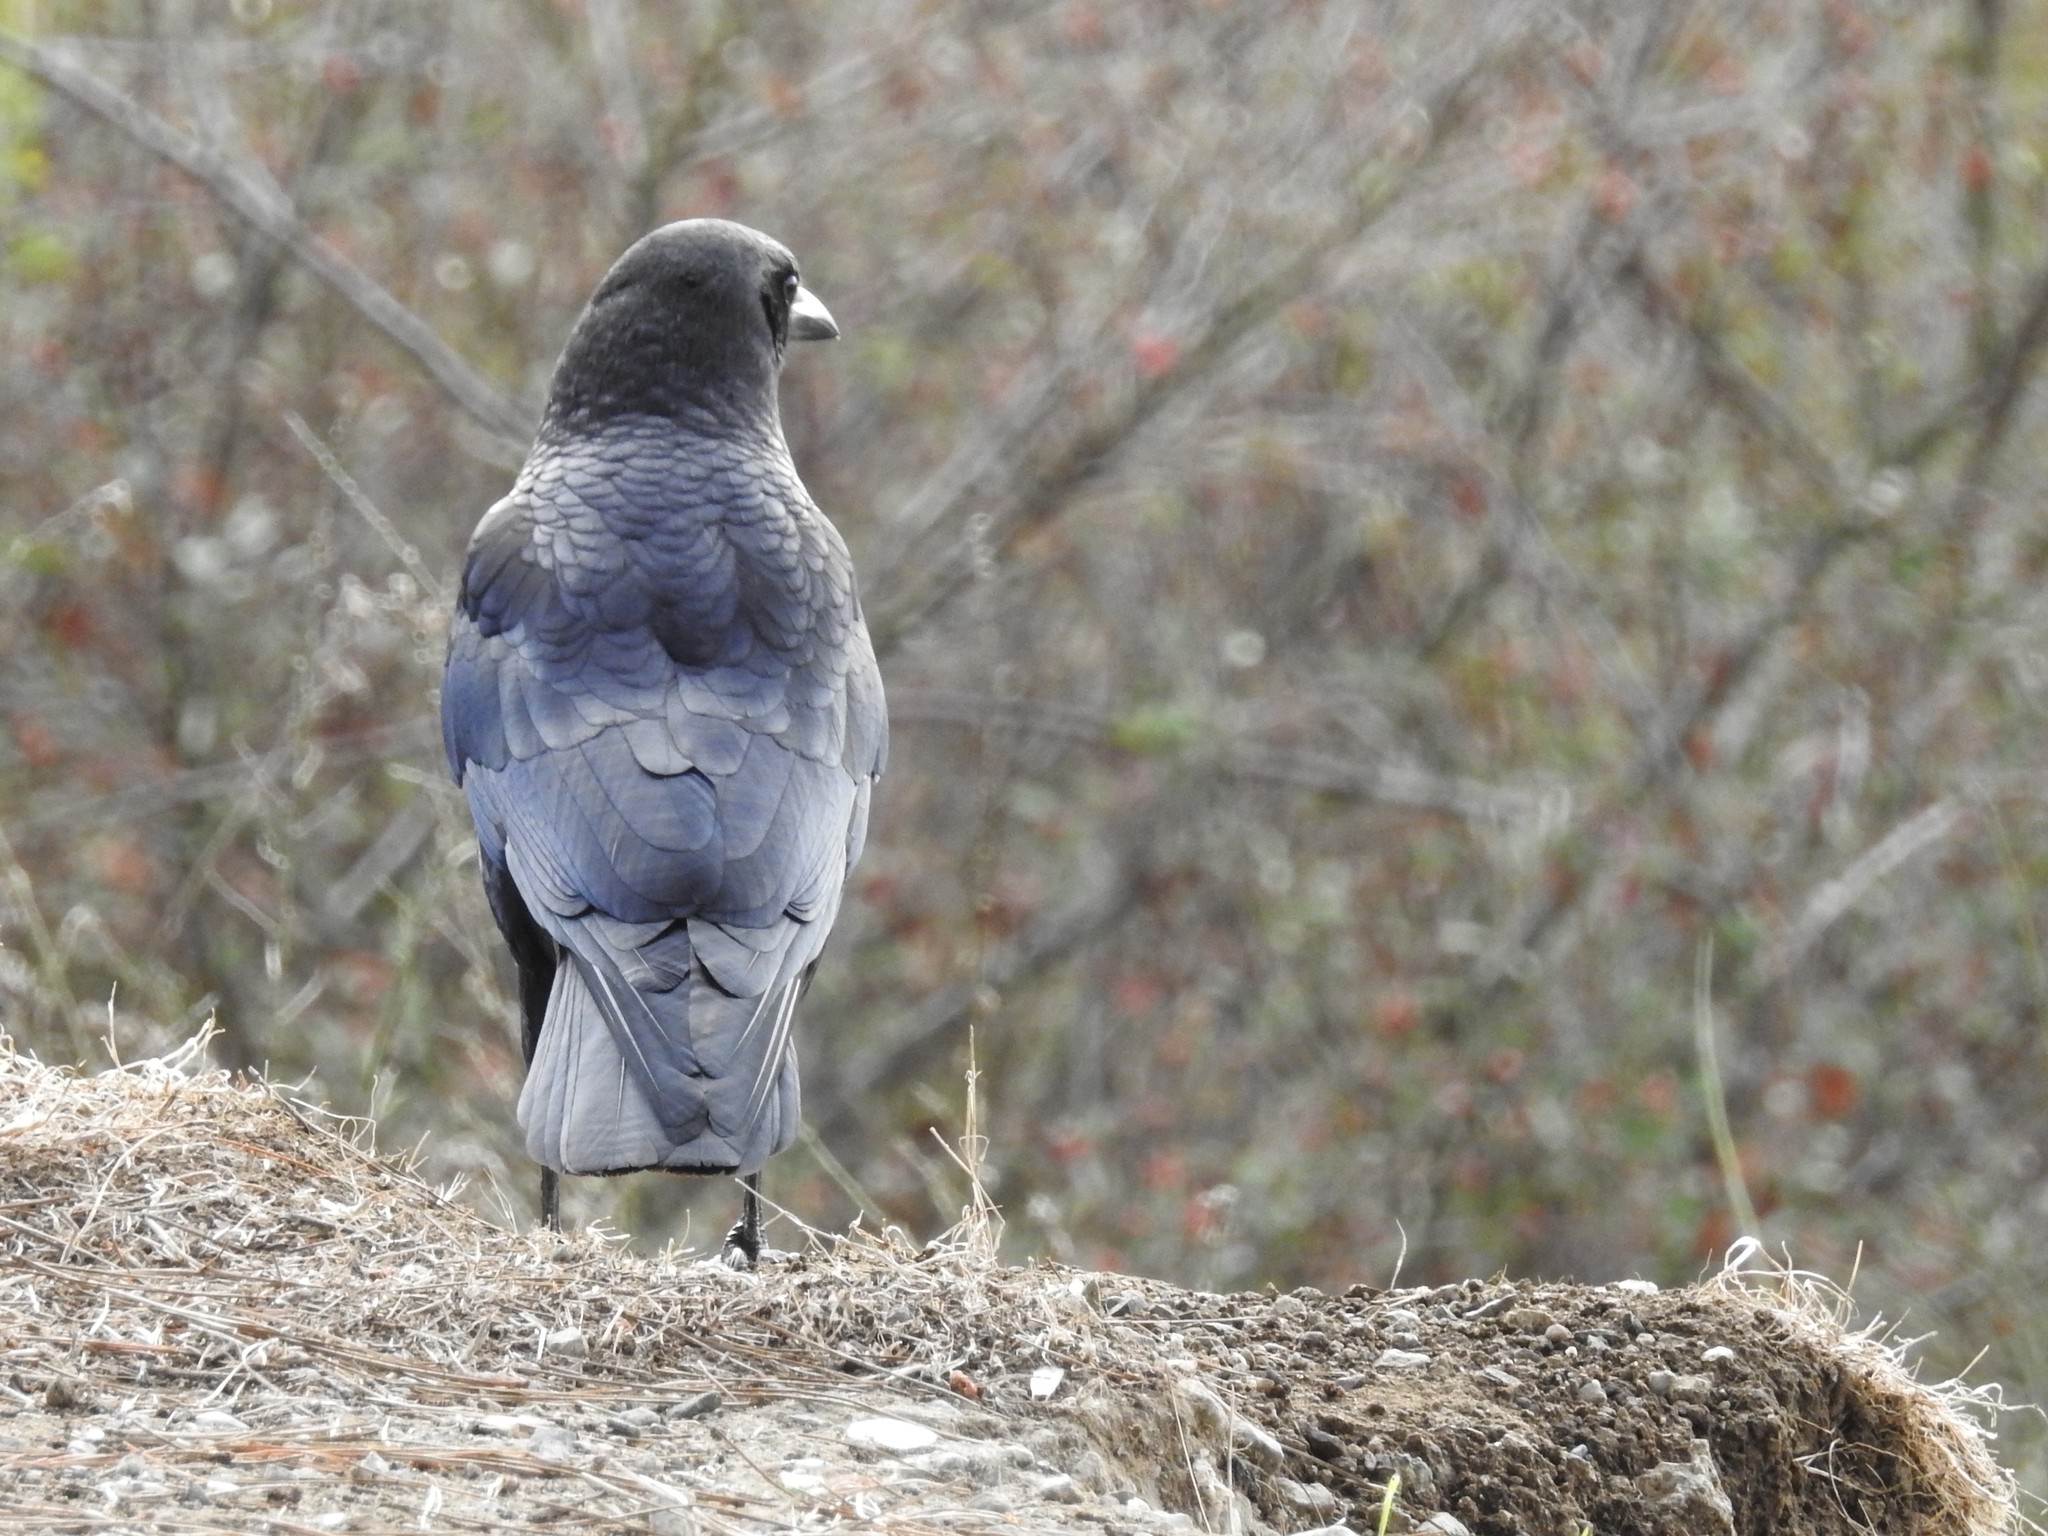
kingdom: Animalia
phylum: Chordata
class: Aves
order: Passeriformes
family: Corvidae
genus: Corvus
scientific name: Corvus brachyrhynchos
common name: American crow
